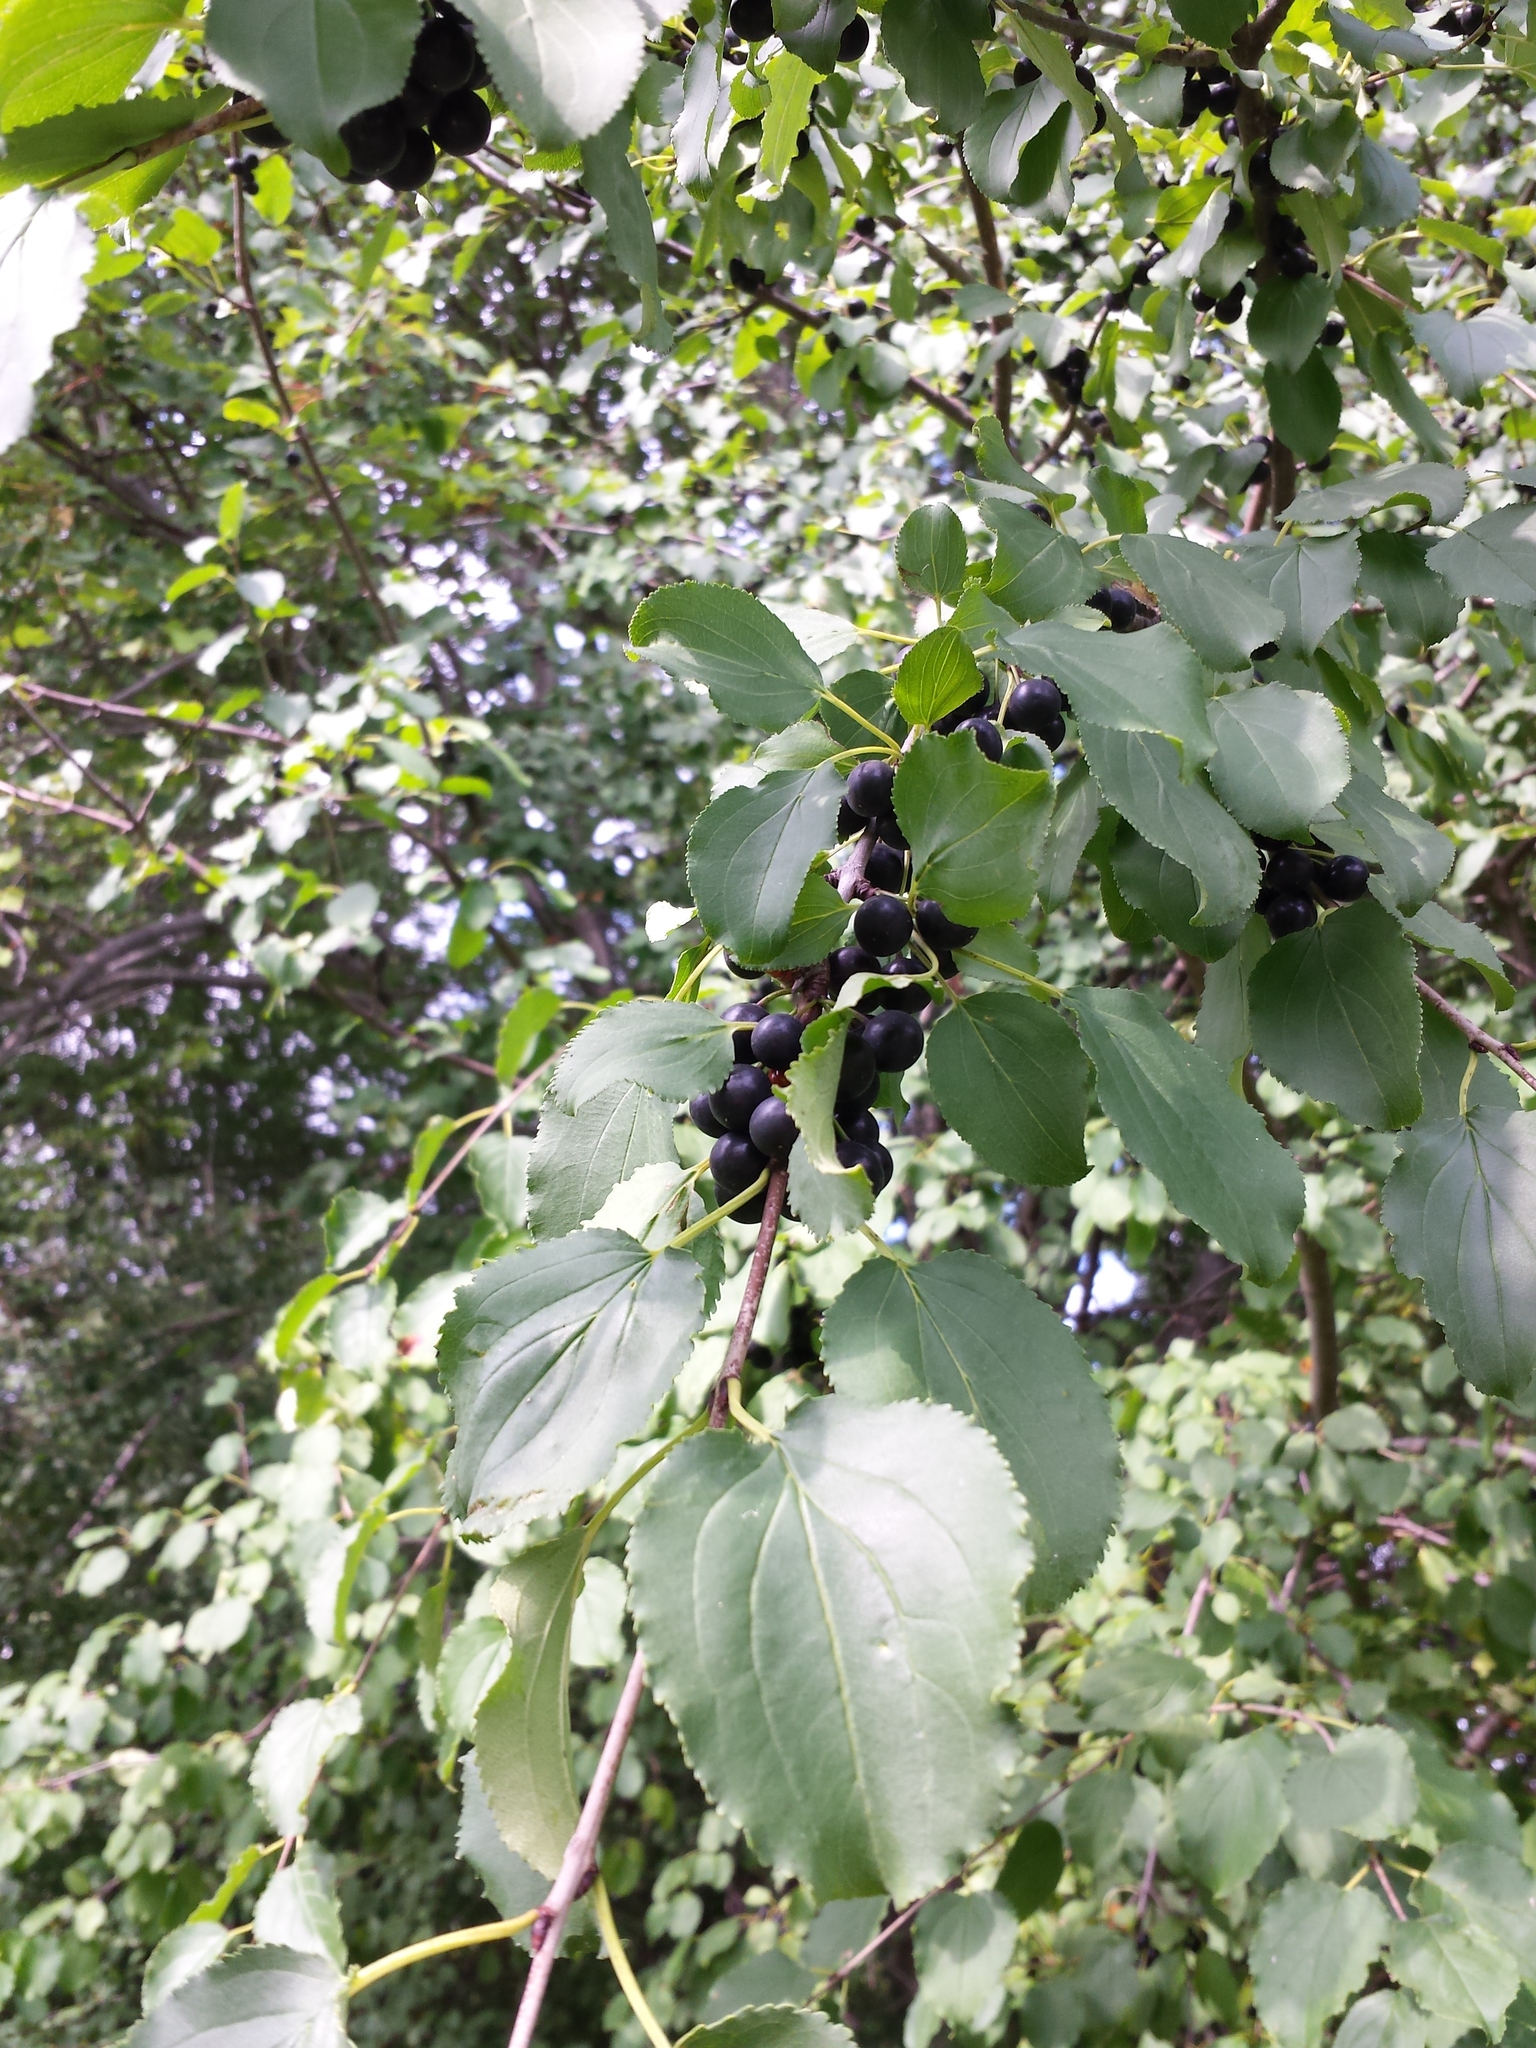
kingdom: Plantae
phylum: Tracheophyta
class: Magnoliopsida
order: Rosales
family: Rhamnaceae
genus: Rhamnus
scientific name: Rhamnus cathartica
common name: Common buckthorn
